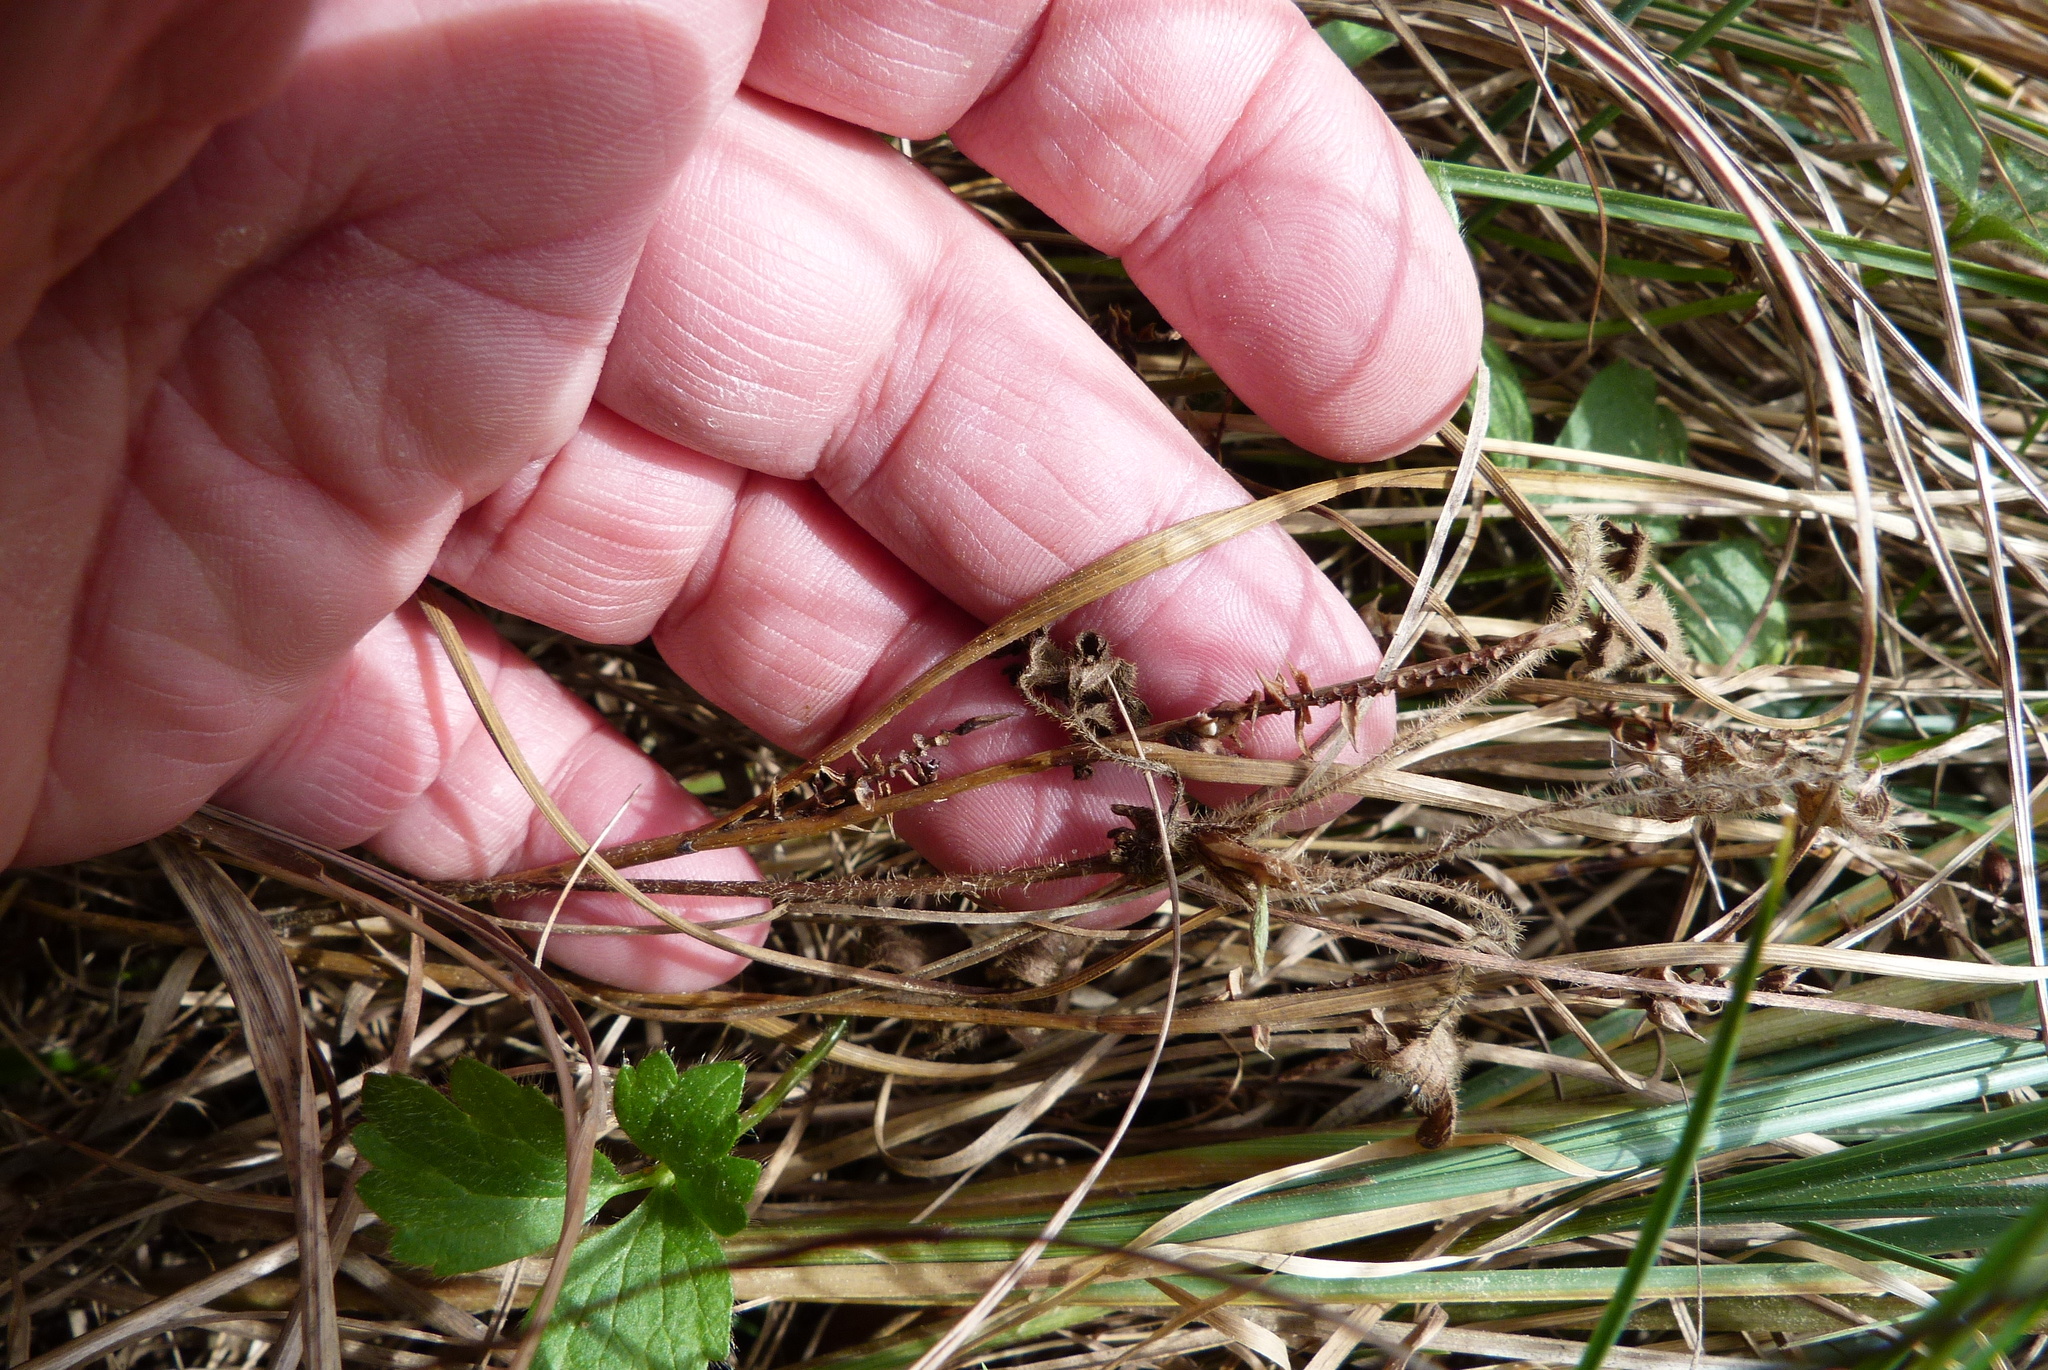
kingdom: Plantae
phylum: Tracheophyta
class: Liliopsida
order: Poales
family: Cyperaceae
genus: Carex
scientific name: Carex flagellifera
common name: Glen murray tussock
